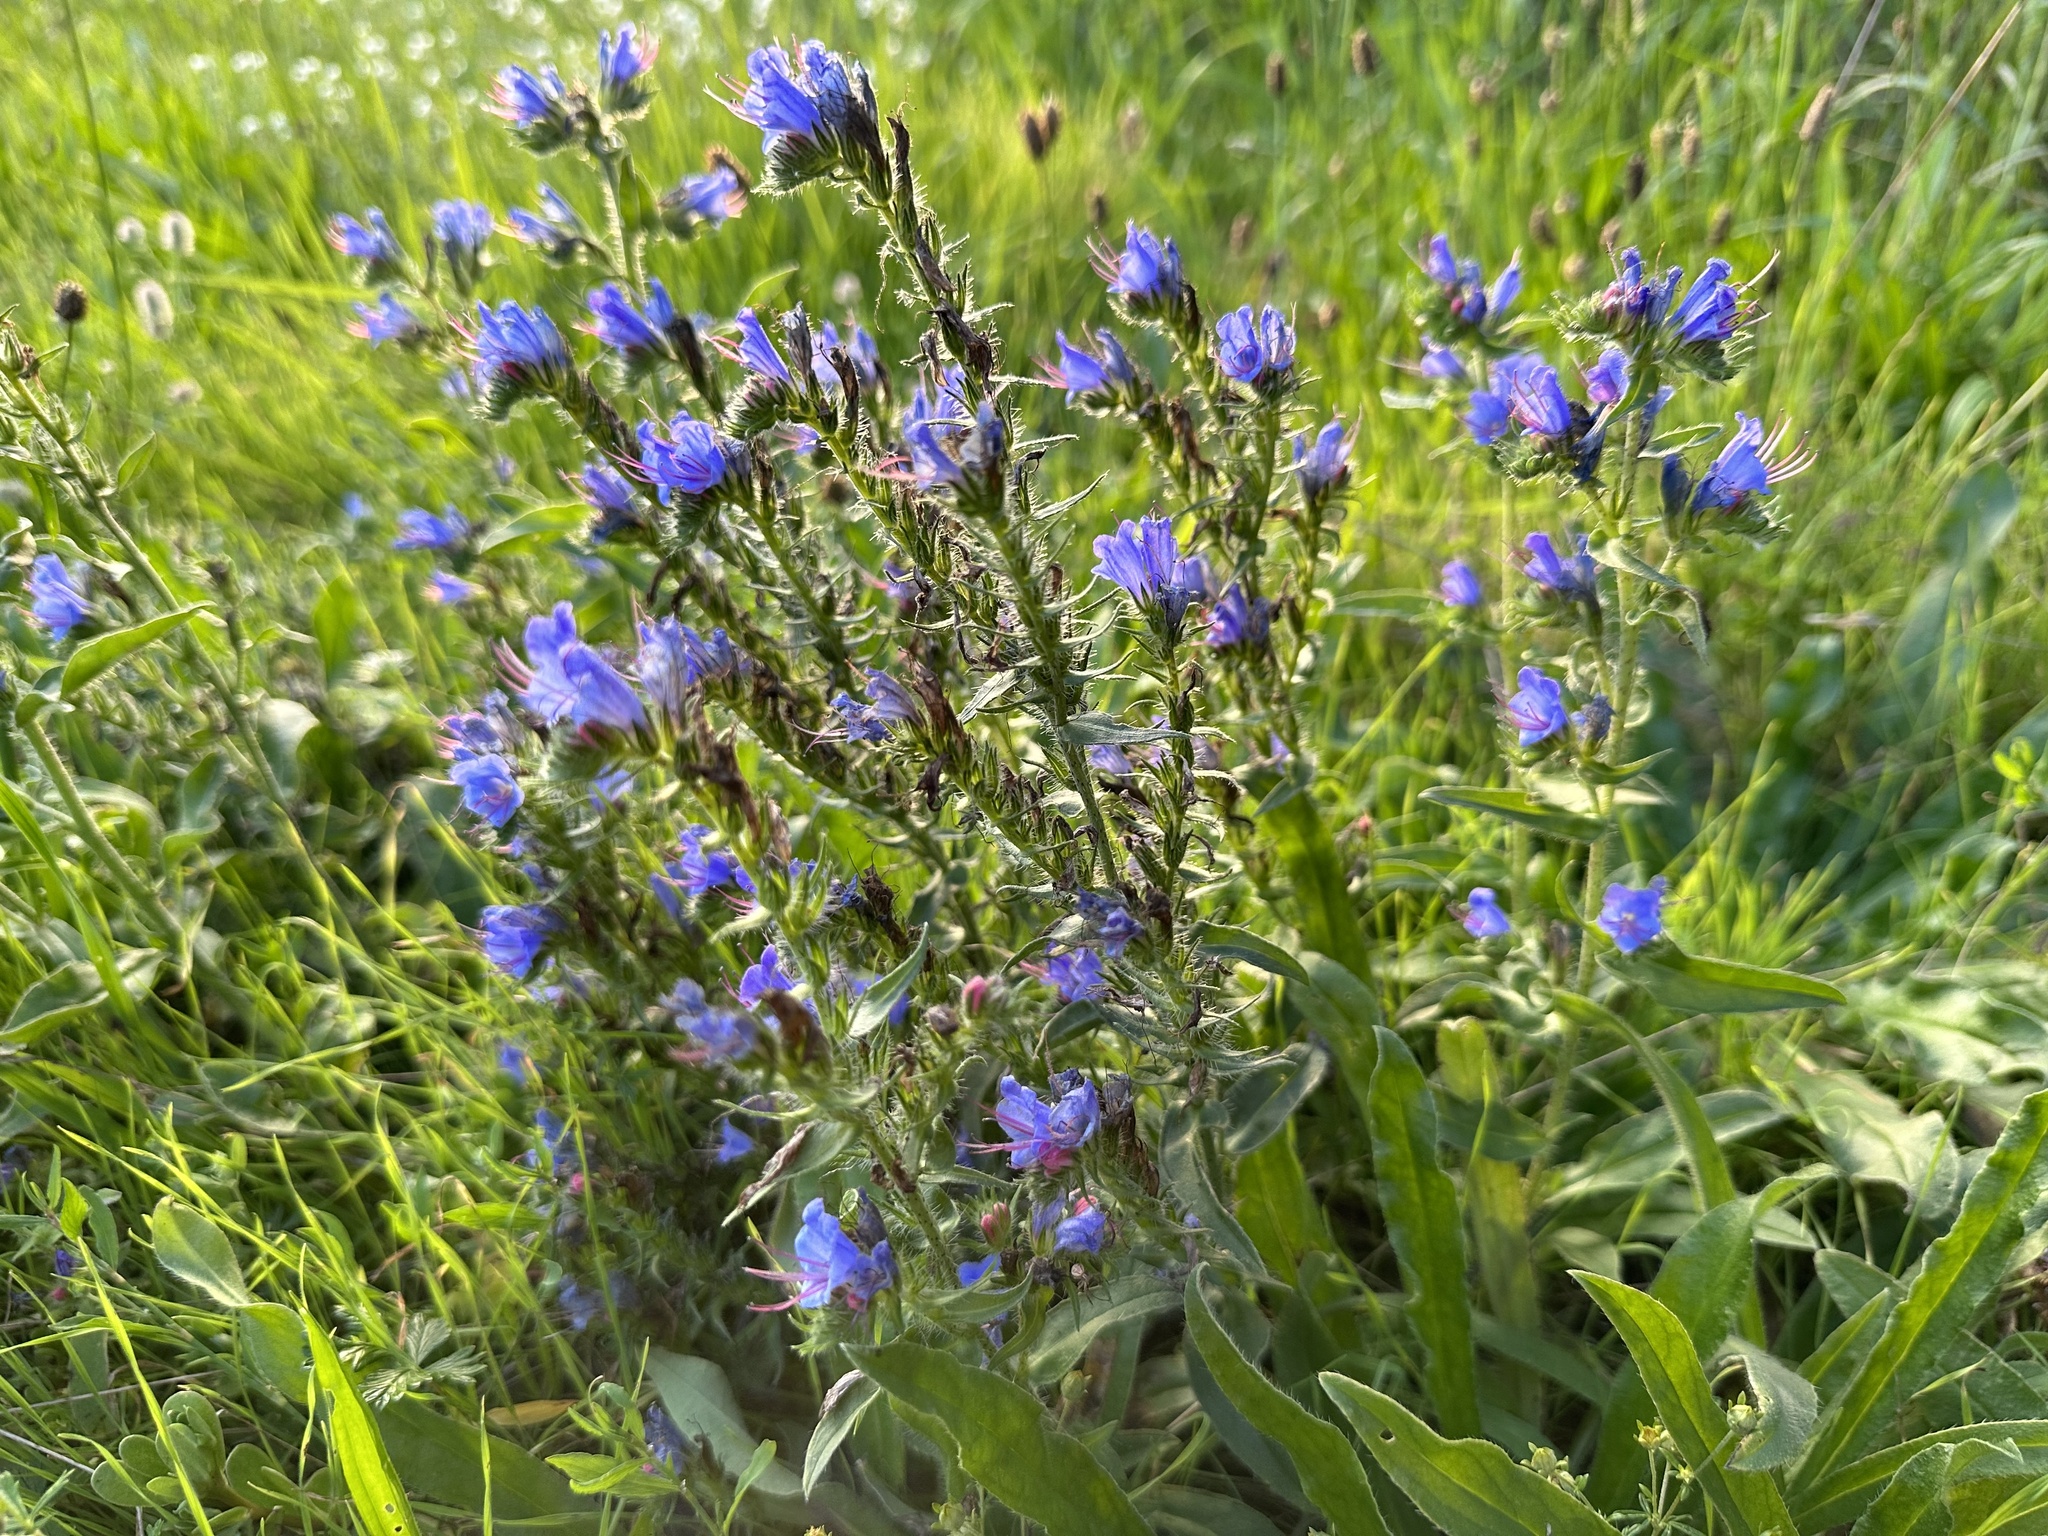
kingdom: Plantae
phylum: Tracheophyta
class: Magnoliopsida
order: Boraginales
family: Boraginaceae
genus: Echium
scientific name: Echium vulgare
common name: Common viper's bugloss
